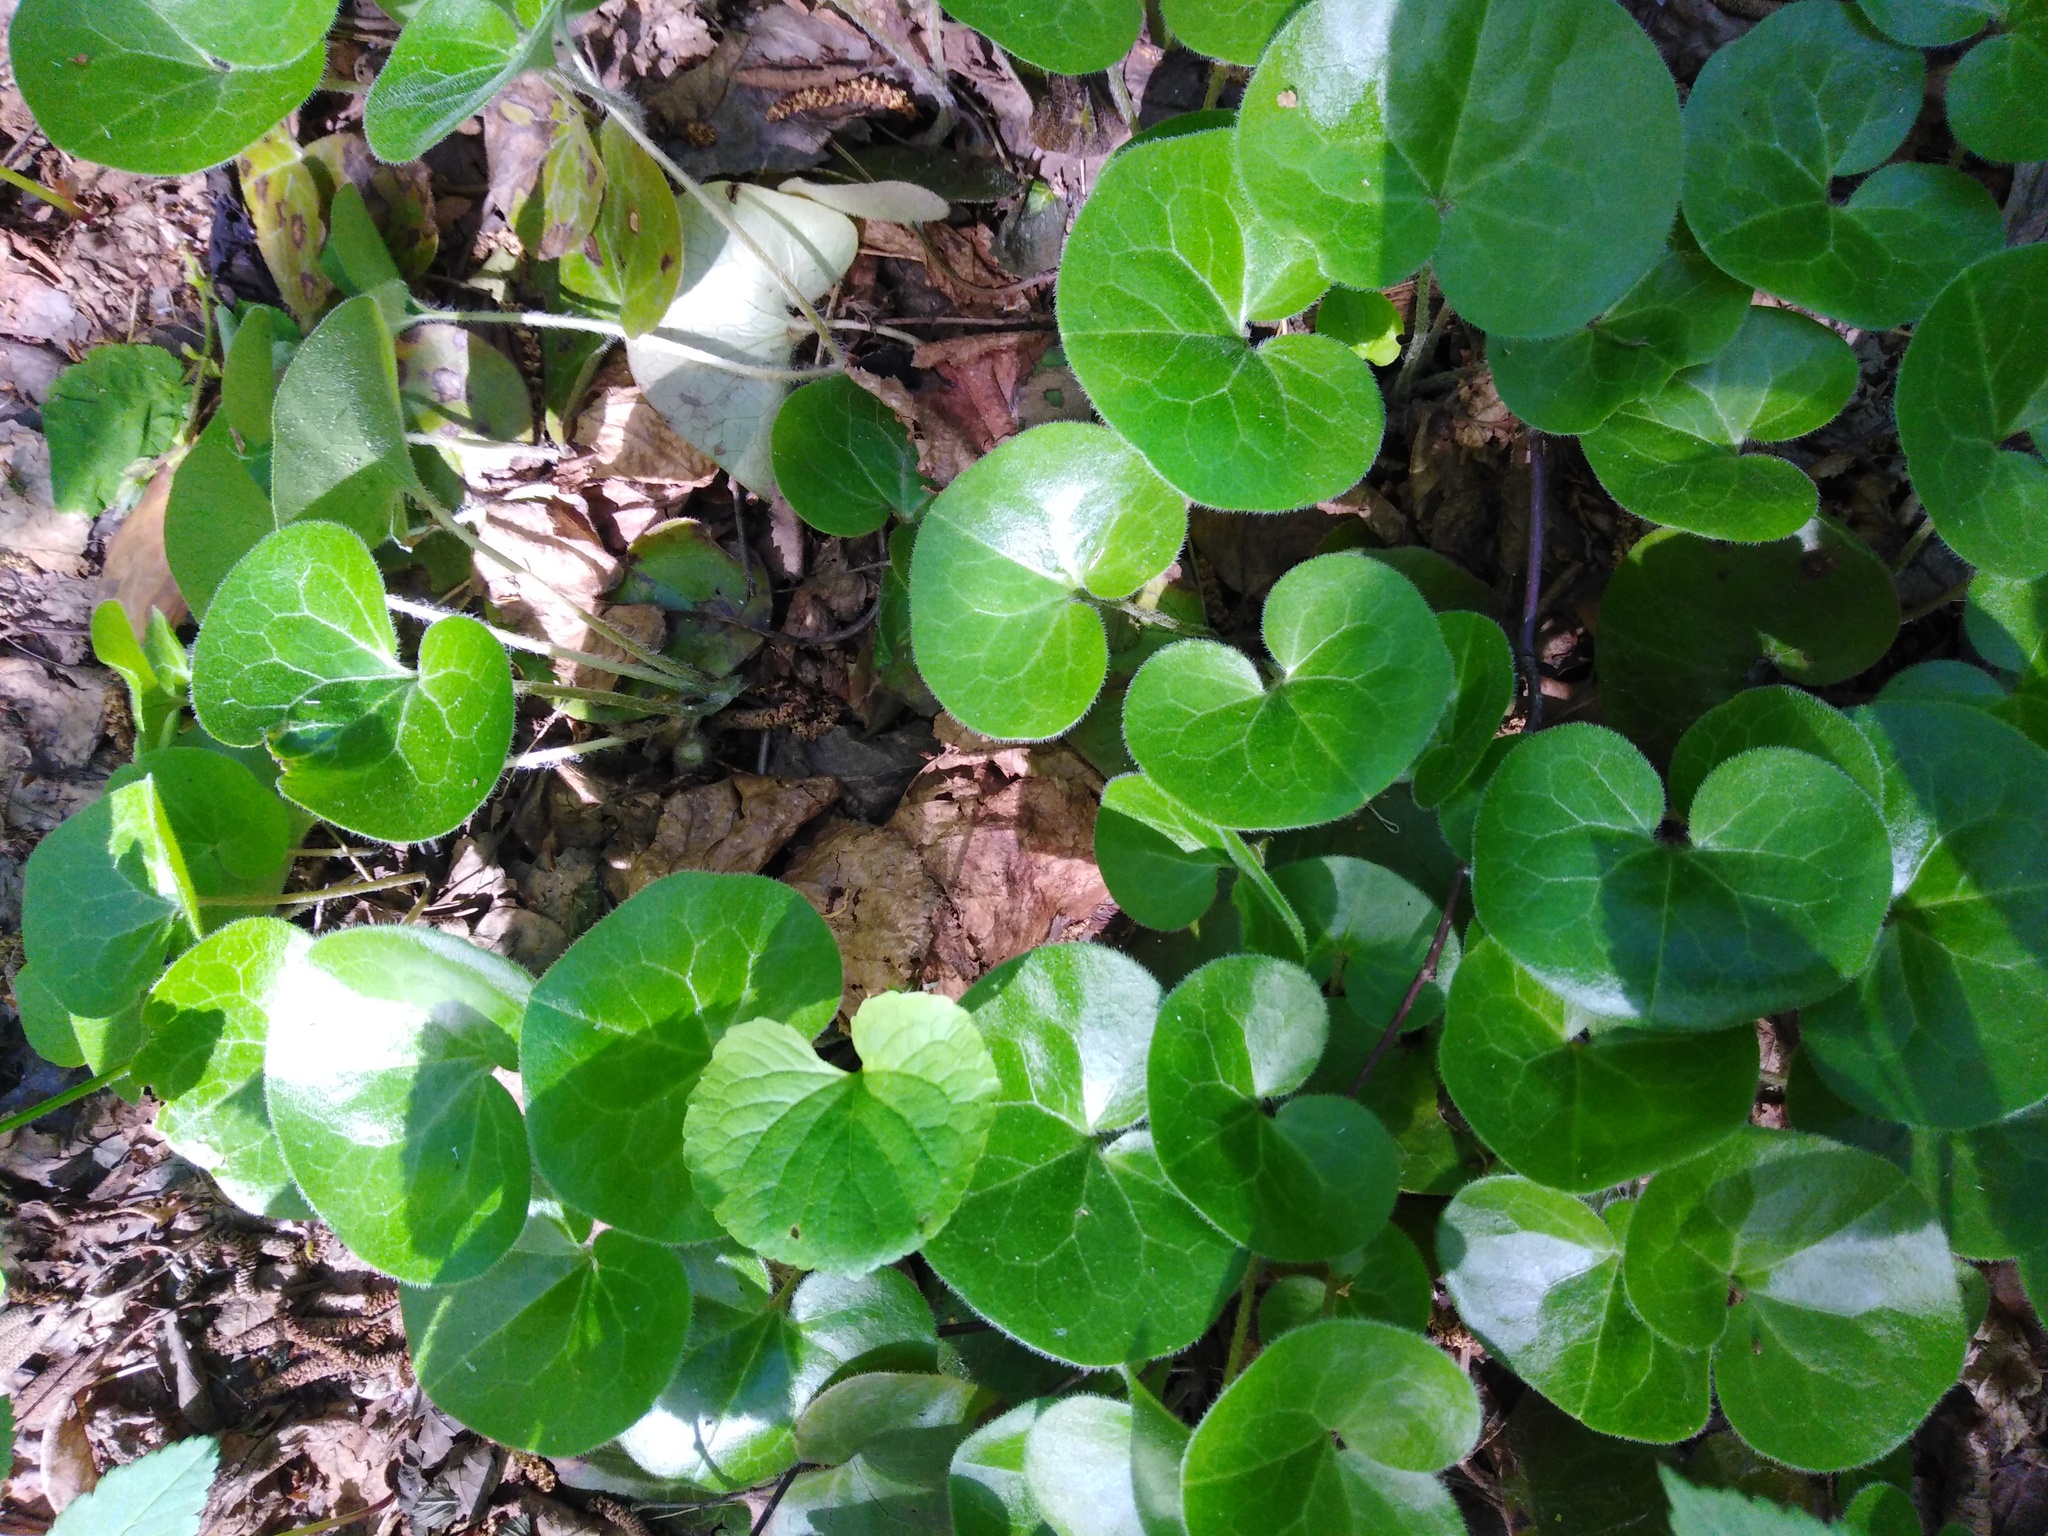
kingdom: Plantae
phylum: Tracheophyta
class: Magnoliopsida
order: Piperales
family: Aristolochiaceae
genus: Asarum
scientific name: Asarum europaeum
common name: Asarabacca
